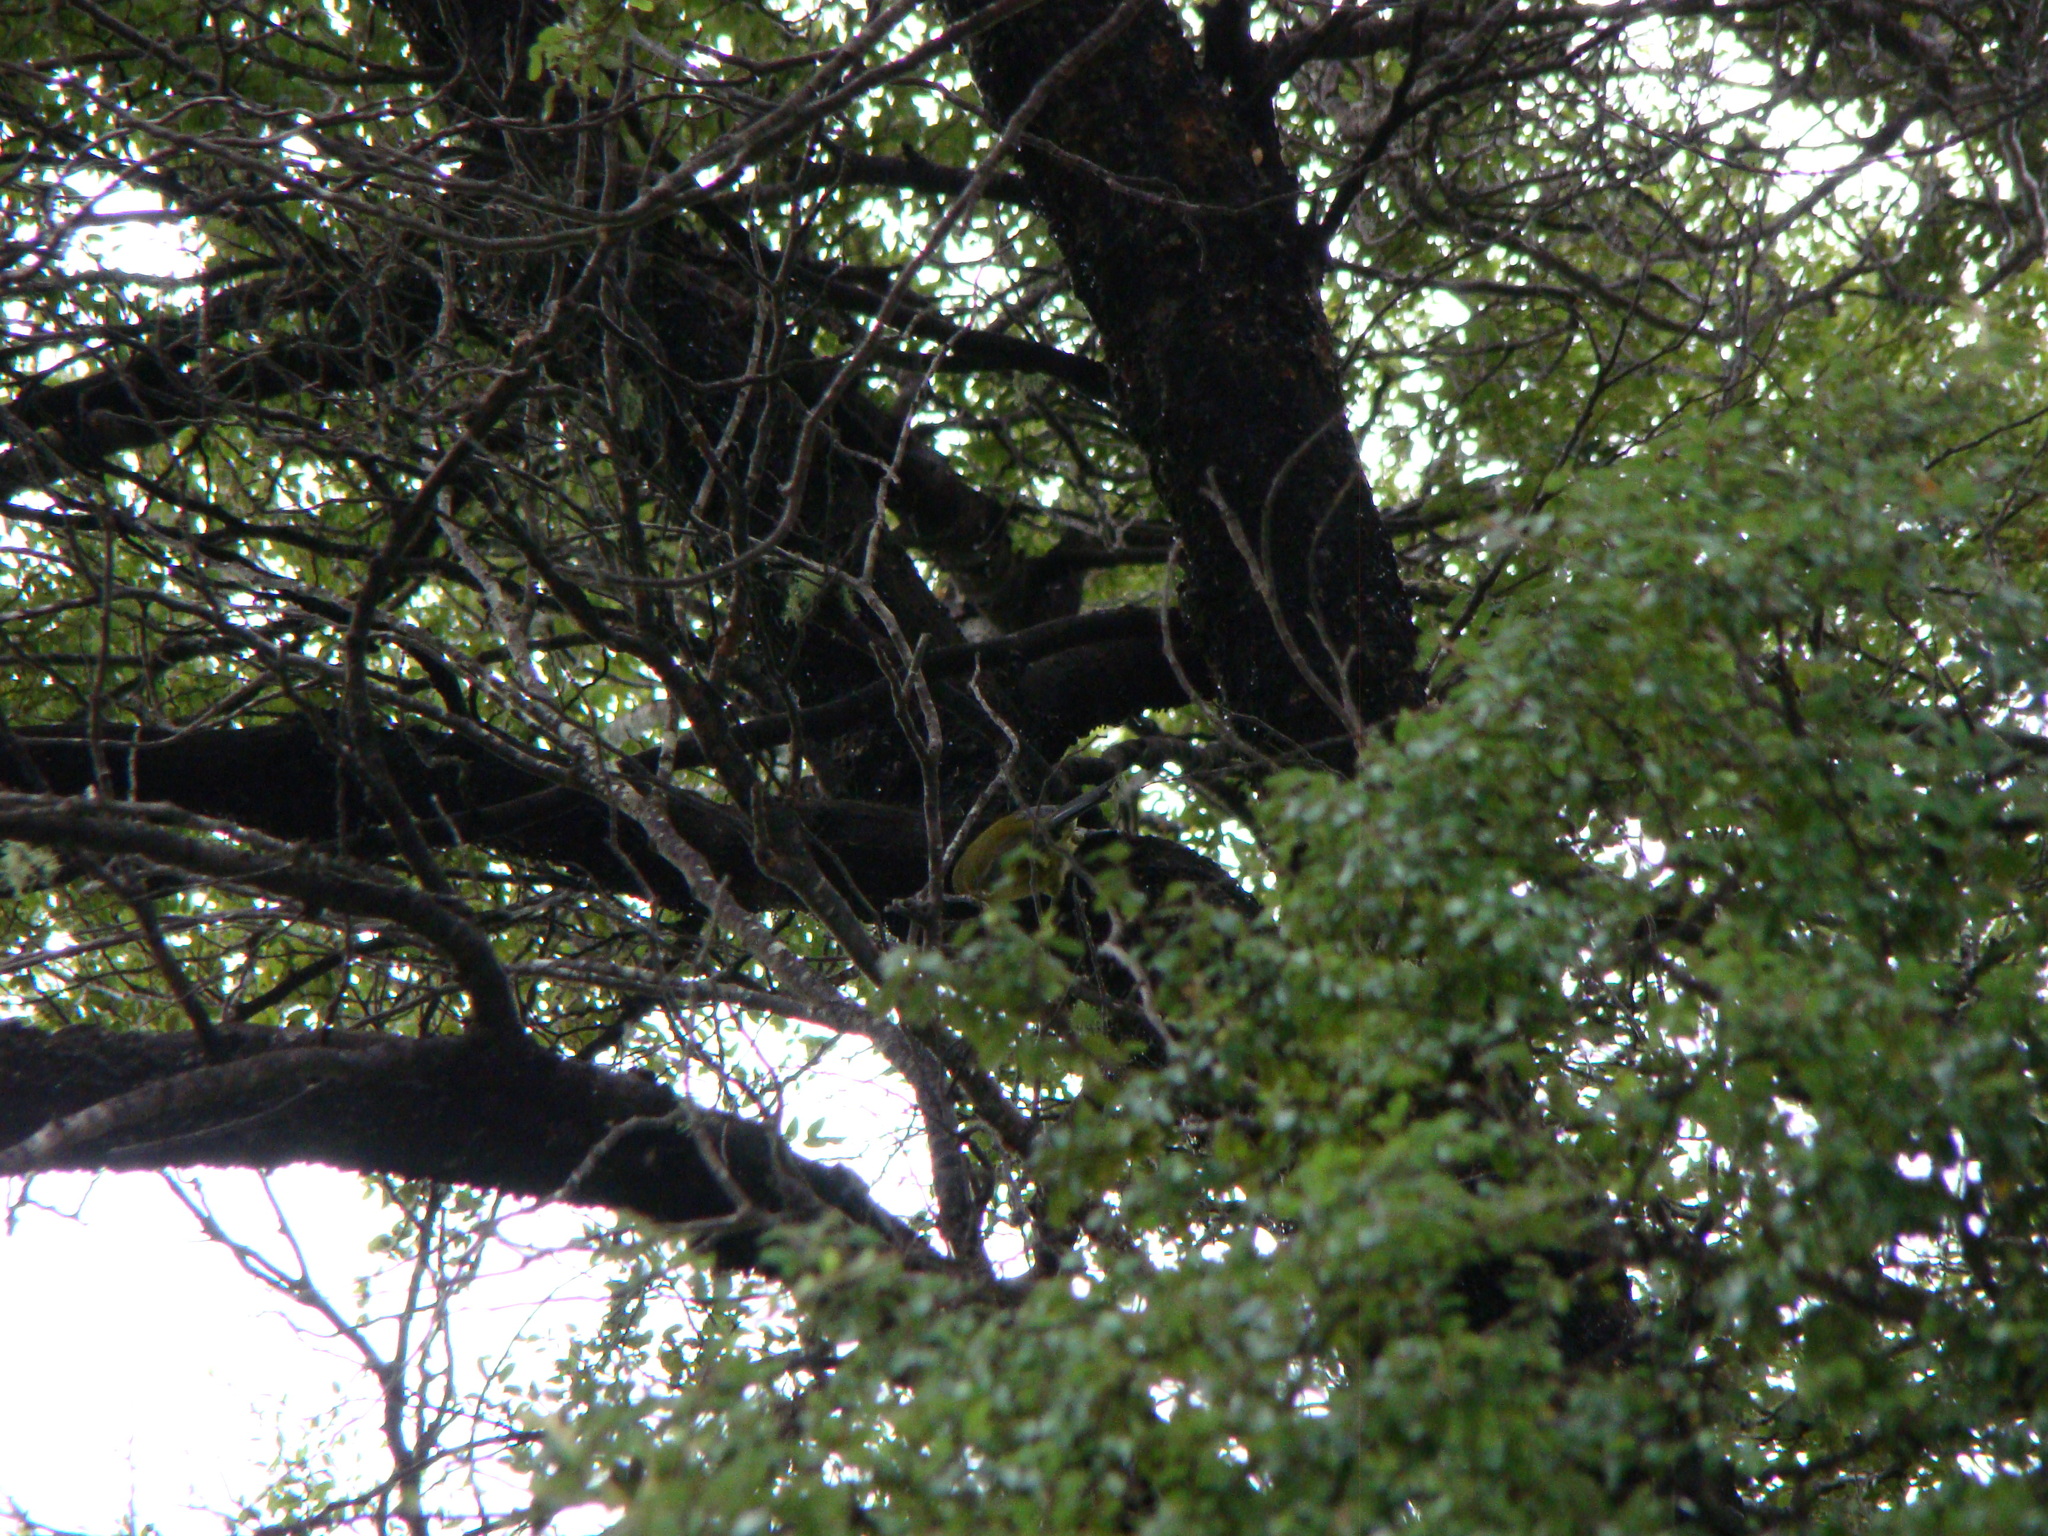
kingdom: Animalia
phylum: Chordata
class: Aves
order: Passeriformes
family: Meliphagidae
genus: Anthornis
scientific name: Anthornis melanura
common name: New zealand bellbird
